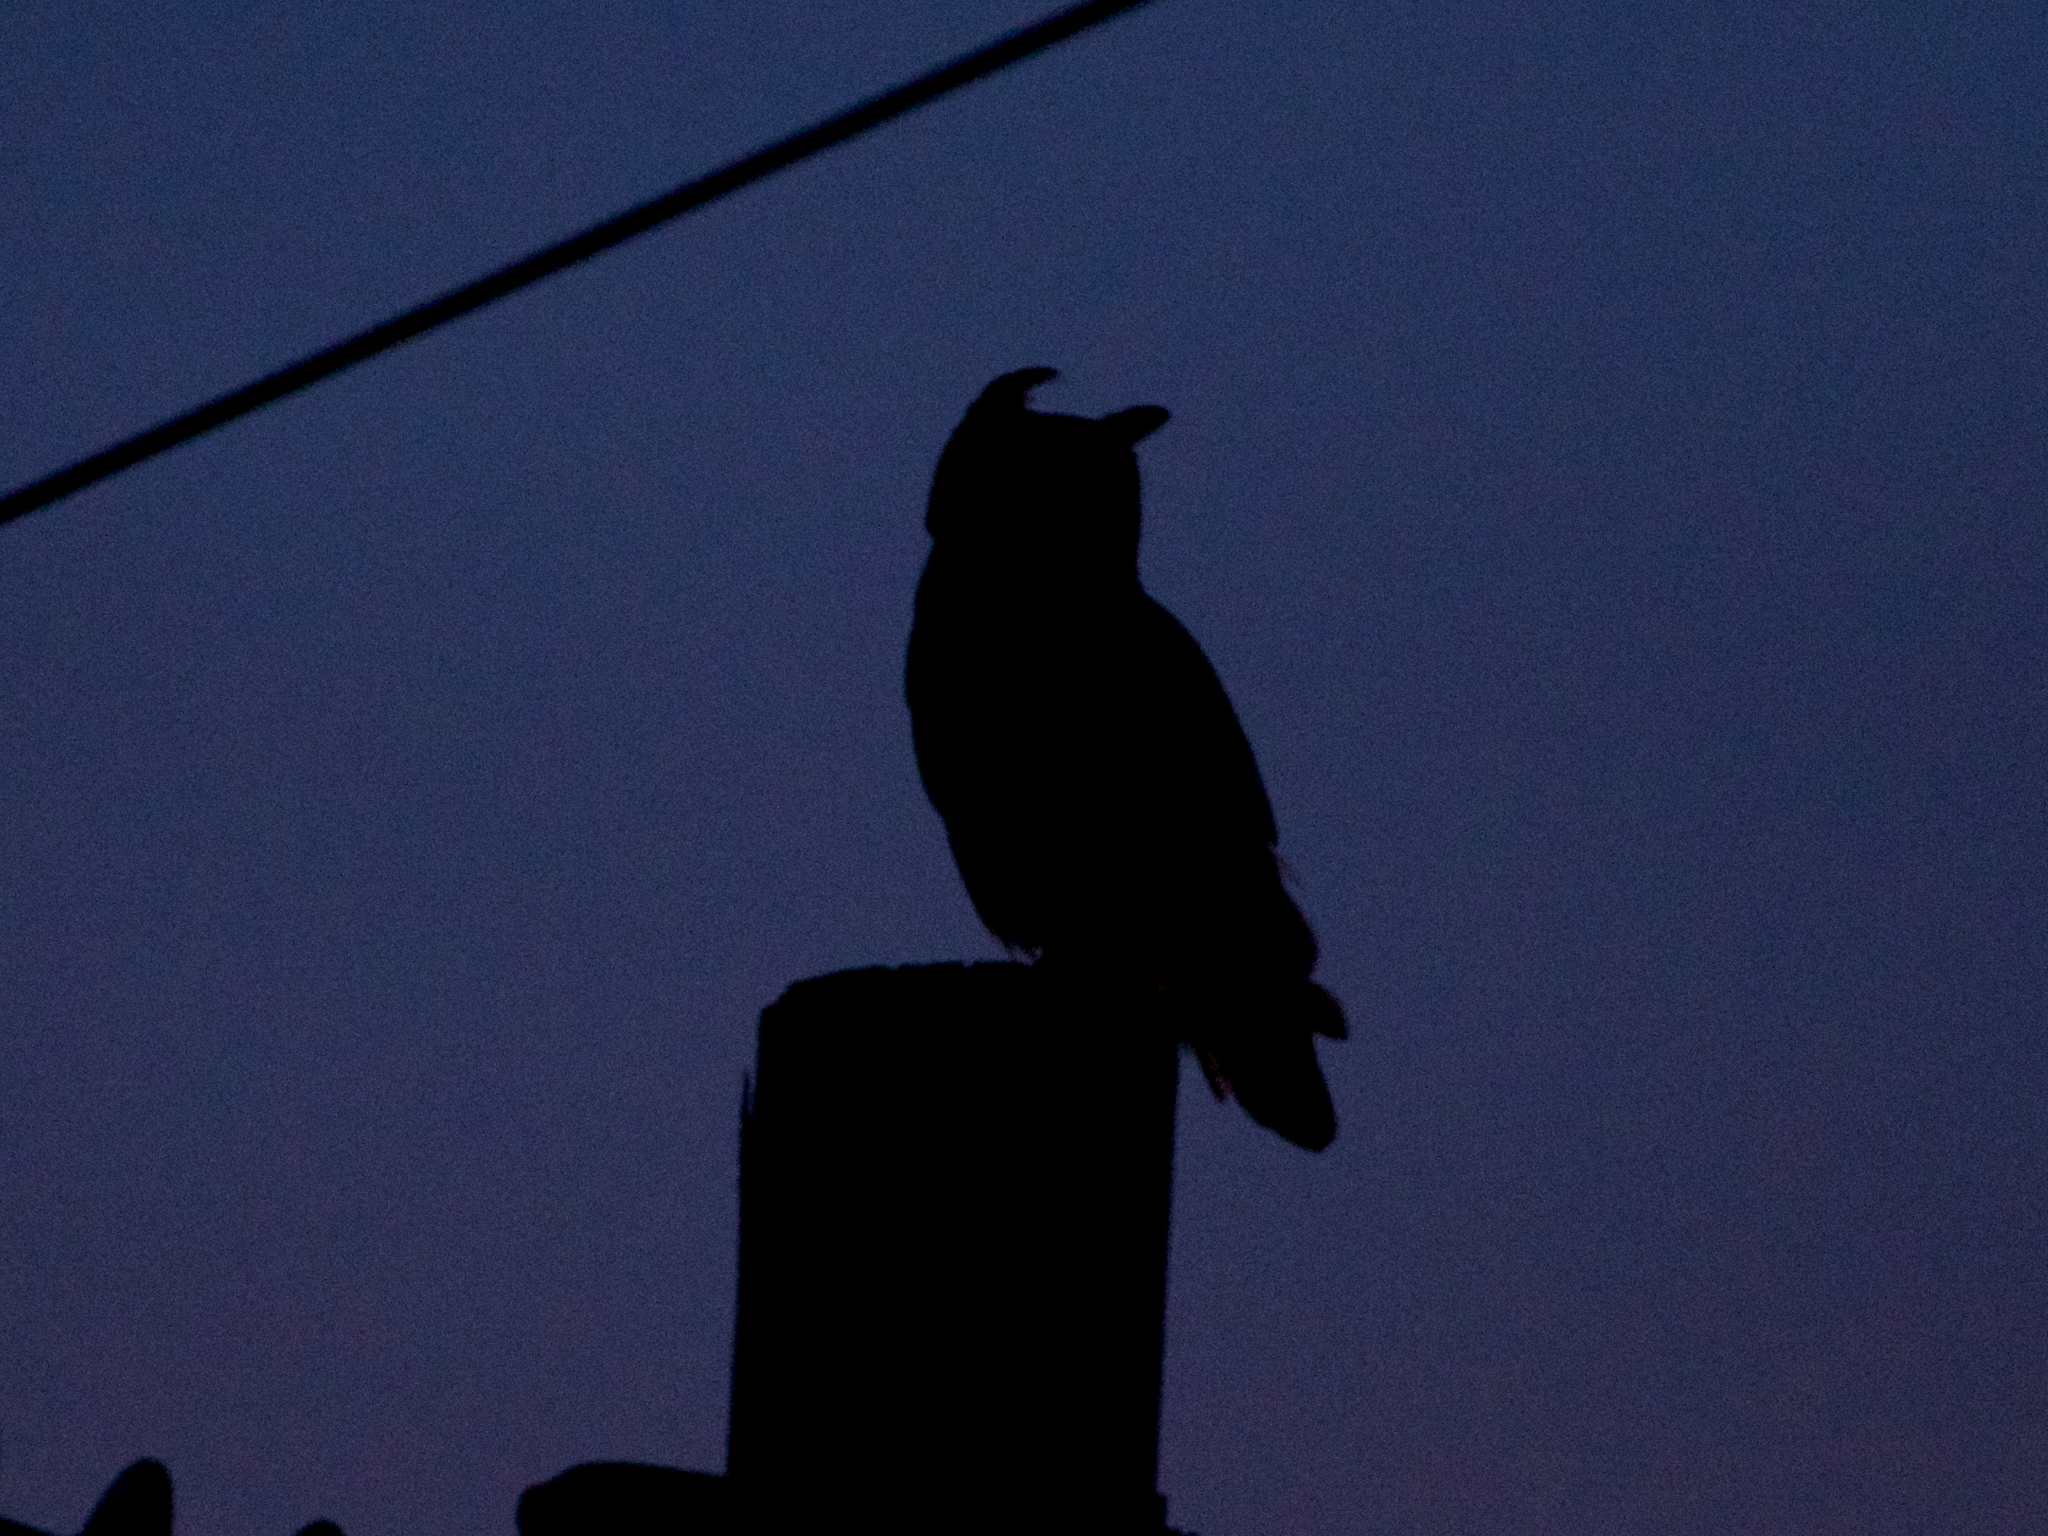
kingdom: Animalia
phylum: Chordata
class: Aves
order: Strigiformes
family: Strigidae
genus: Bubo
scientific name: Bubo virginianus
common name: Great horned owl
